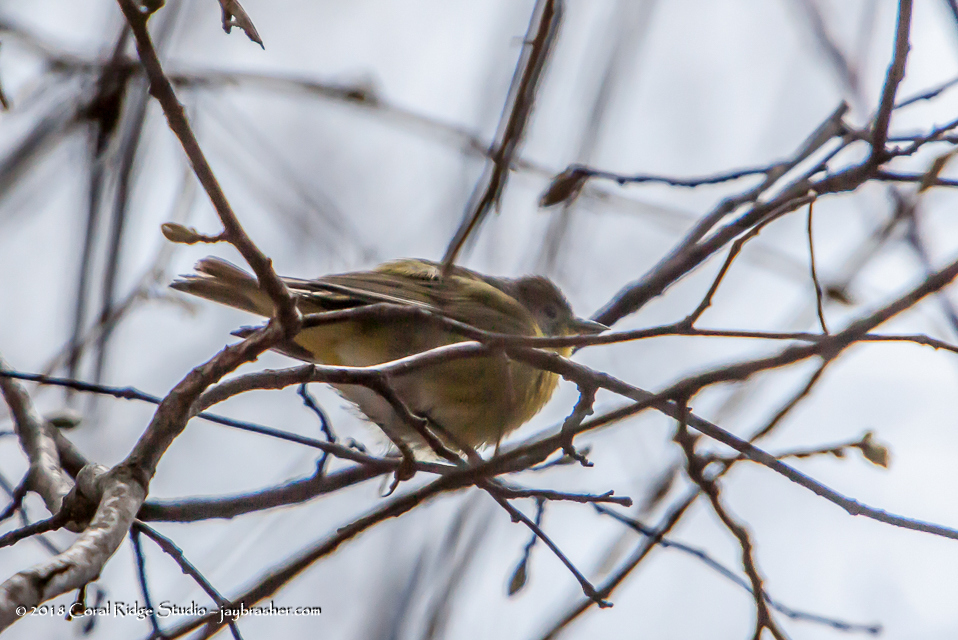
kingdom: Animalia
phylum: Chordata
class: Aves
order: Passeriformes
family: Parulidae
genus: Setophaga
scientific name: Setophaga pinus
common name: Pine warbler
